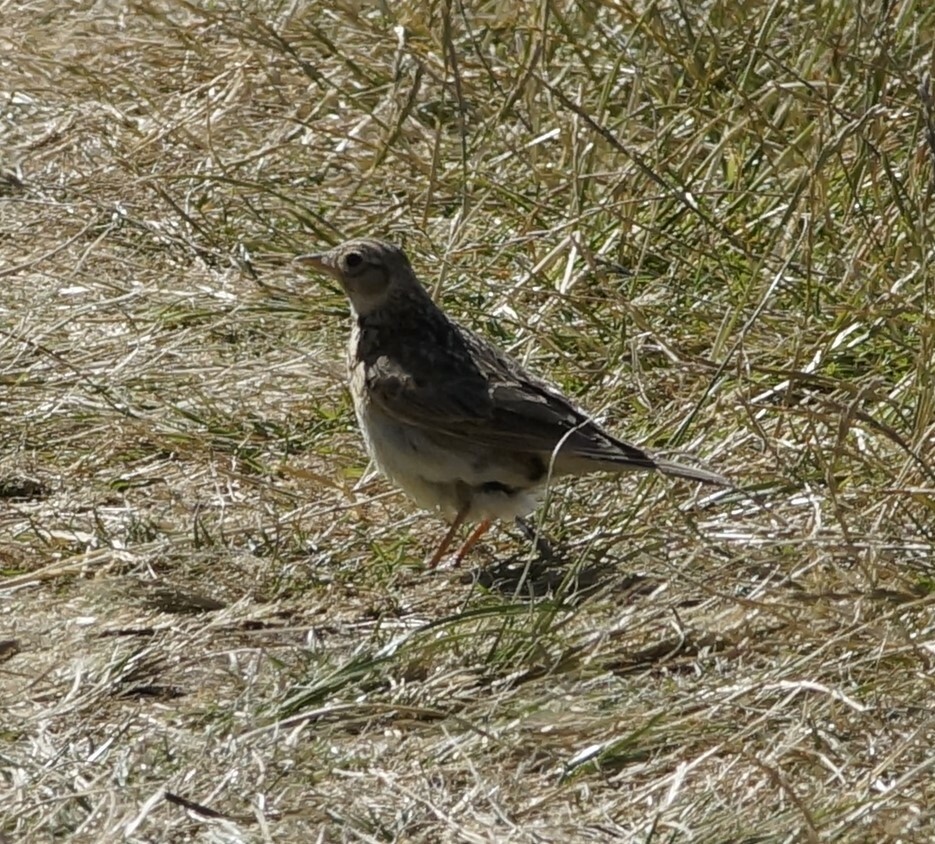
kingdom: Animalia
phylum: Chordata
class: Aves
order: Passeriformes
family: Alaudidae
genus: Alauda
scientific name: Alauda arvensis
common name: Eurasian skylark
